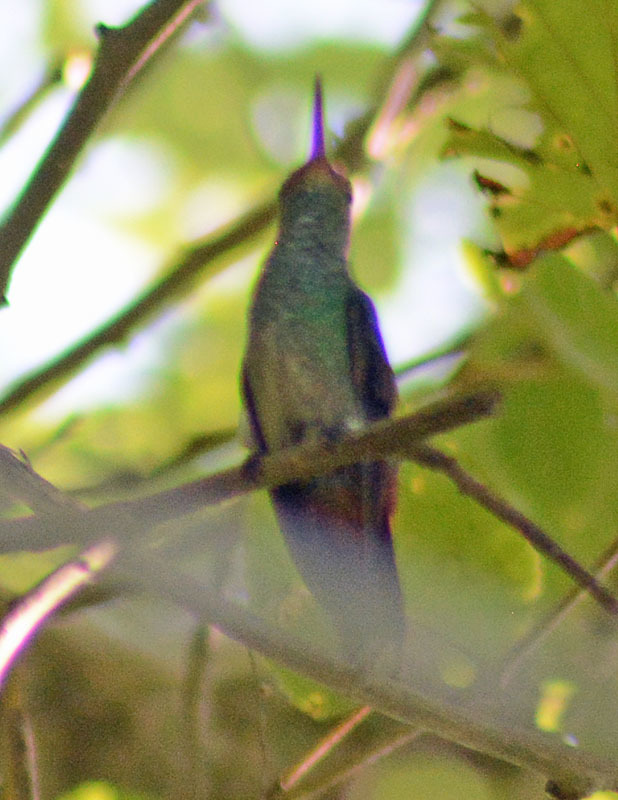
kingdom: Animalia
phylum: Chordata
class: Aves
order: Apodiformes
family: Trochilidae
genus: Amazilia
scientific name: Amazilia tzacatl
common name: Rufous-tailed hummingbird
